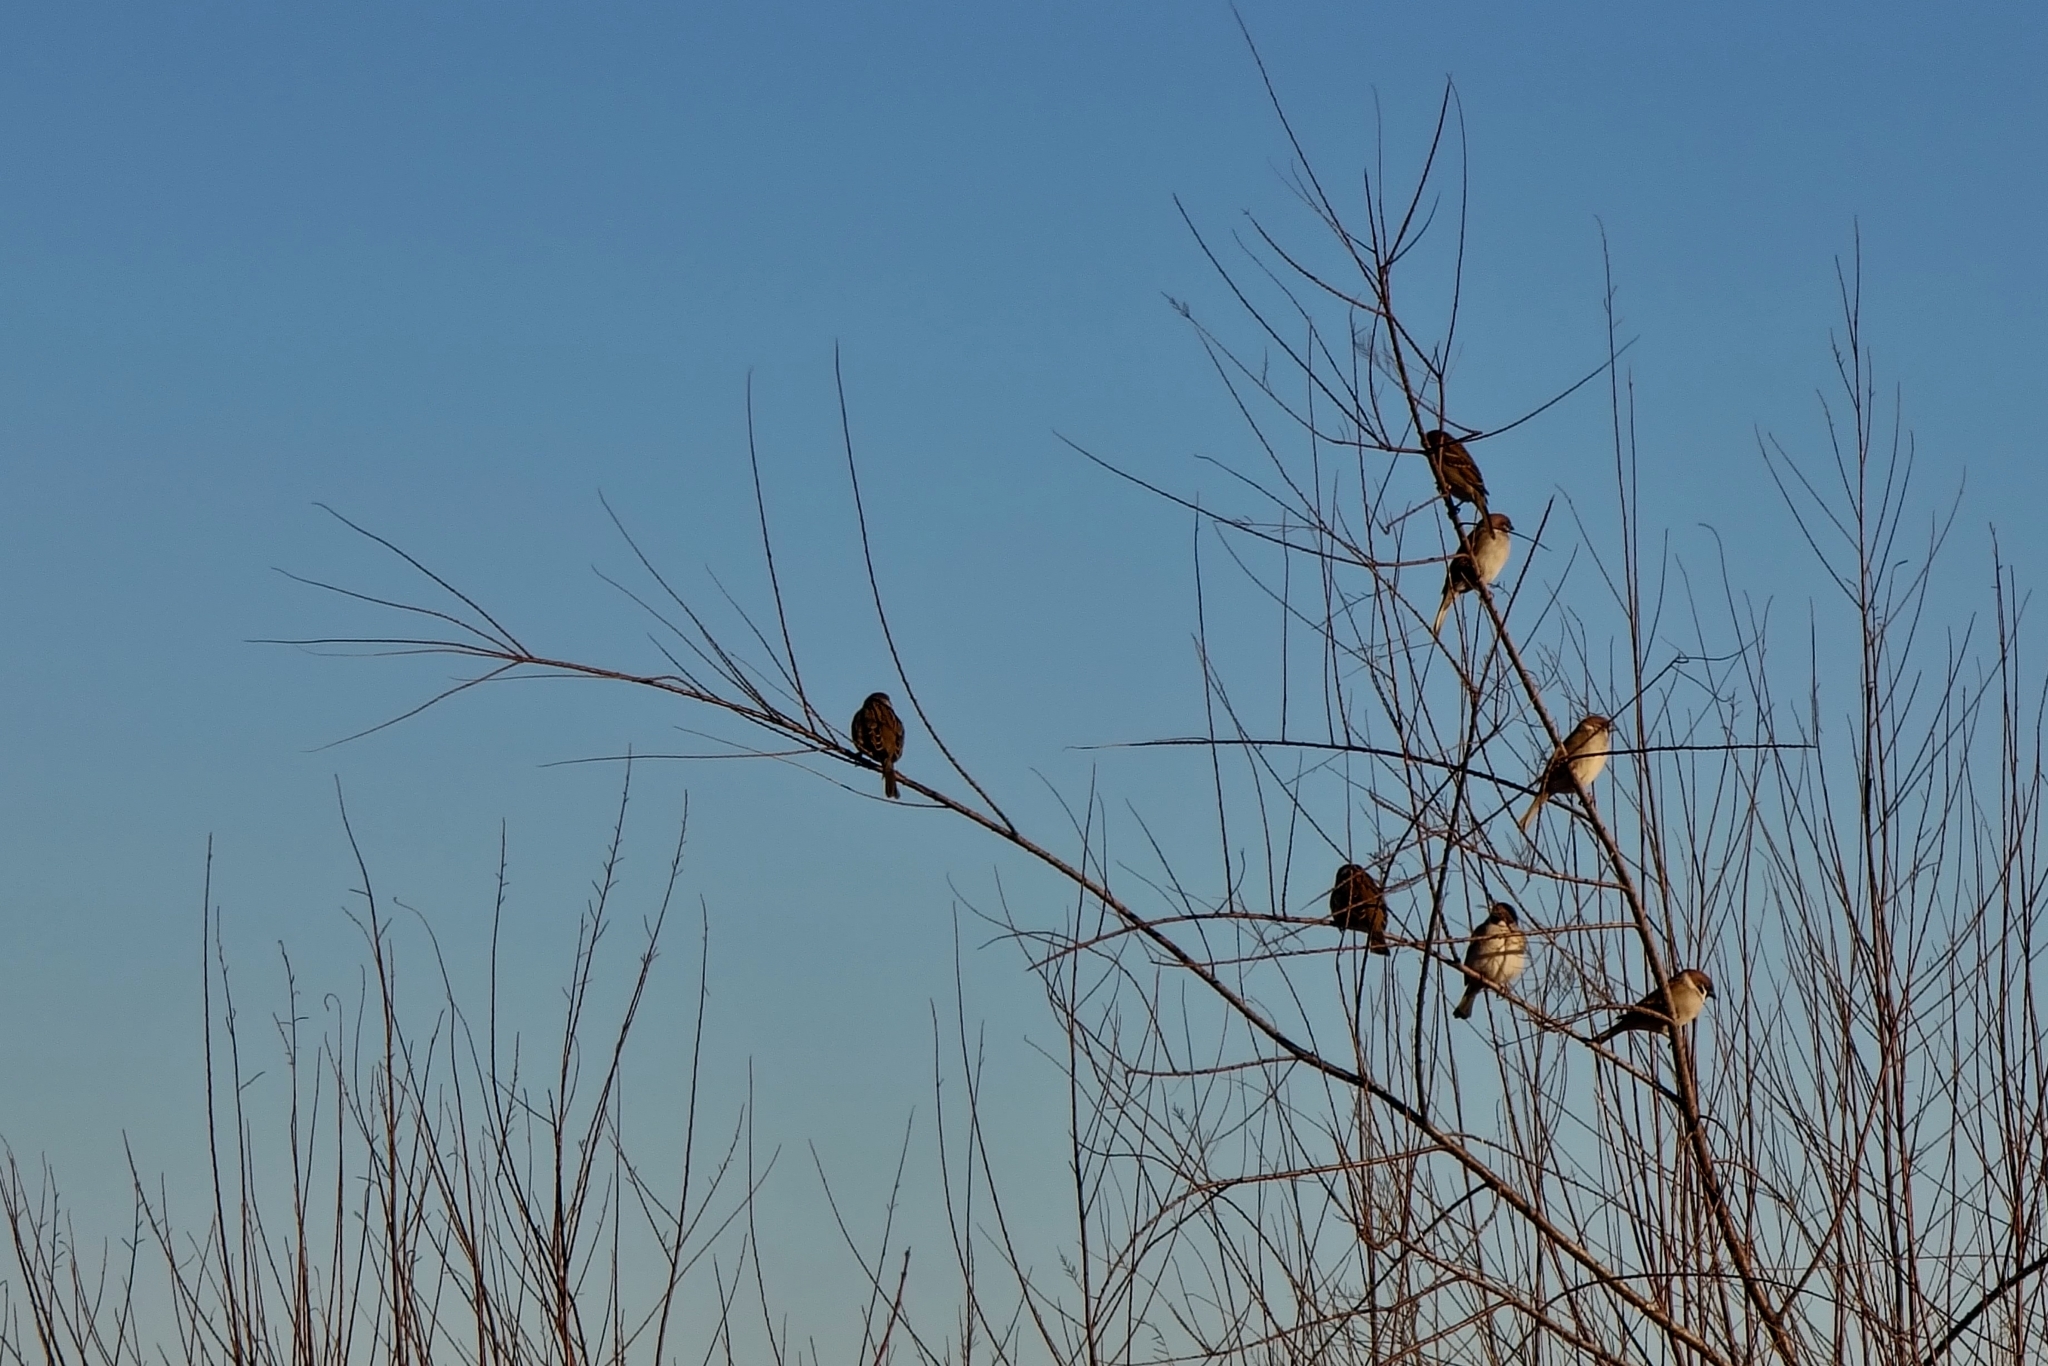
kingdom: Animalia
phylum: Chordata
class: Aves
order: Passeriformes
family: Passeridae
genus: Passer
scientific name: Passer montanus
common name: Eurasian tree sparrow
